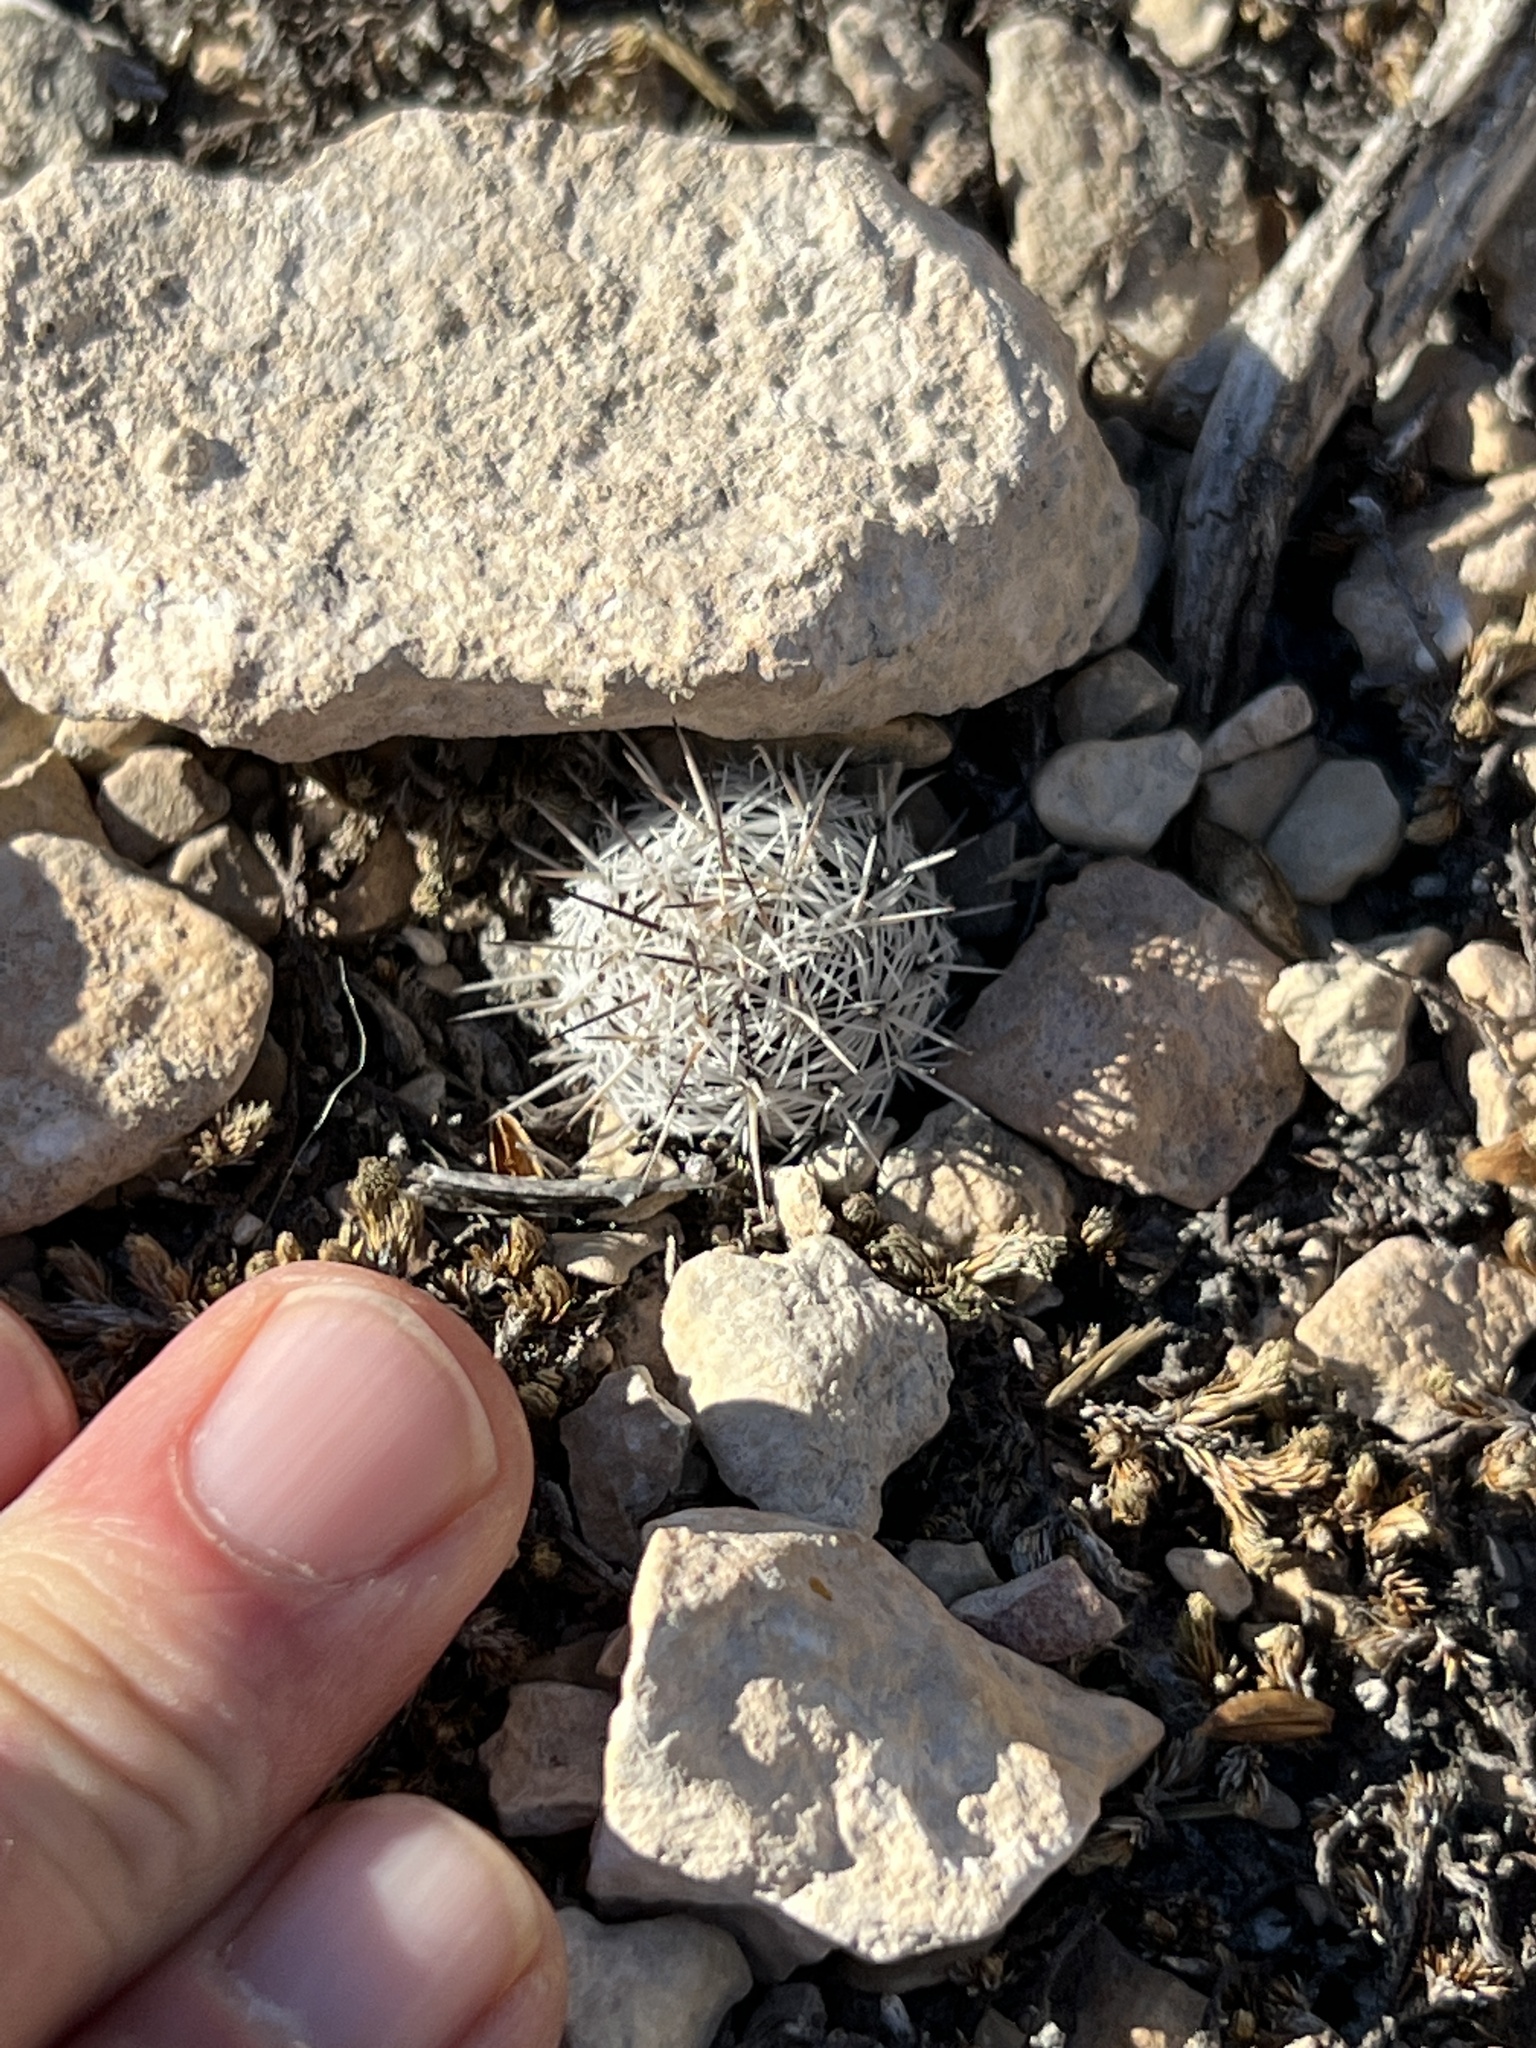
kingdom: Plantae
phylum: Tracheophyta
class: Magnoliopsida
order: Caryophyllales
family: Cactaceae
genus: Cochemiea
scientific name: Cochemiea conoidea
